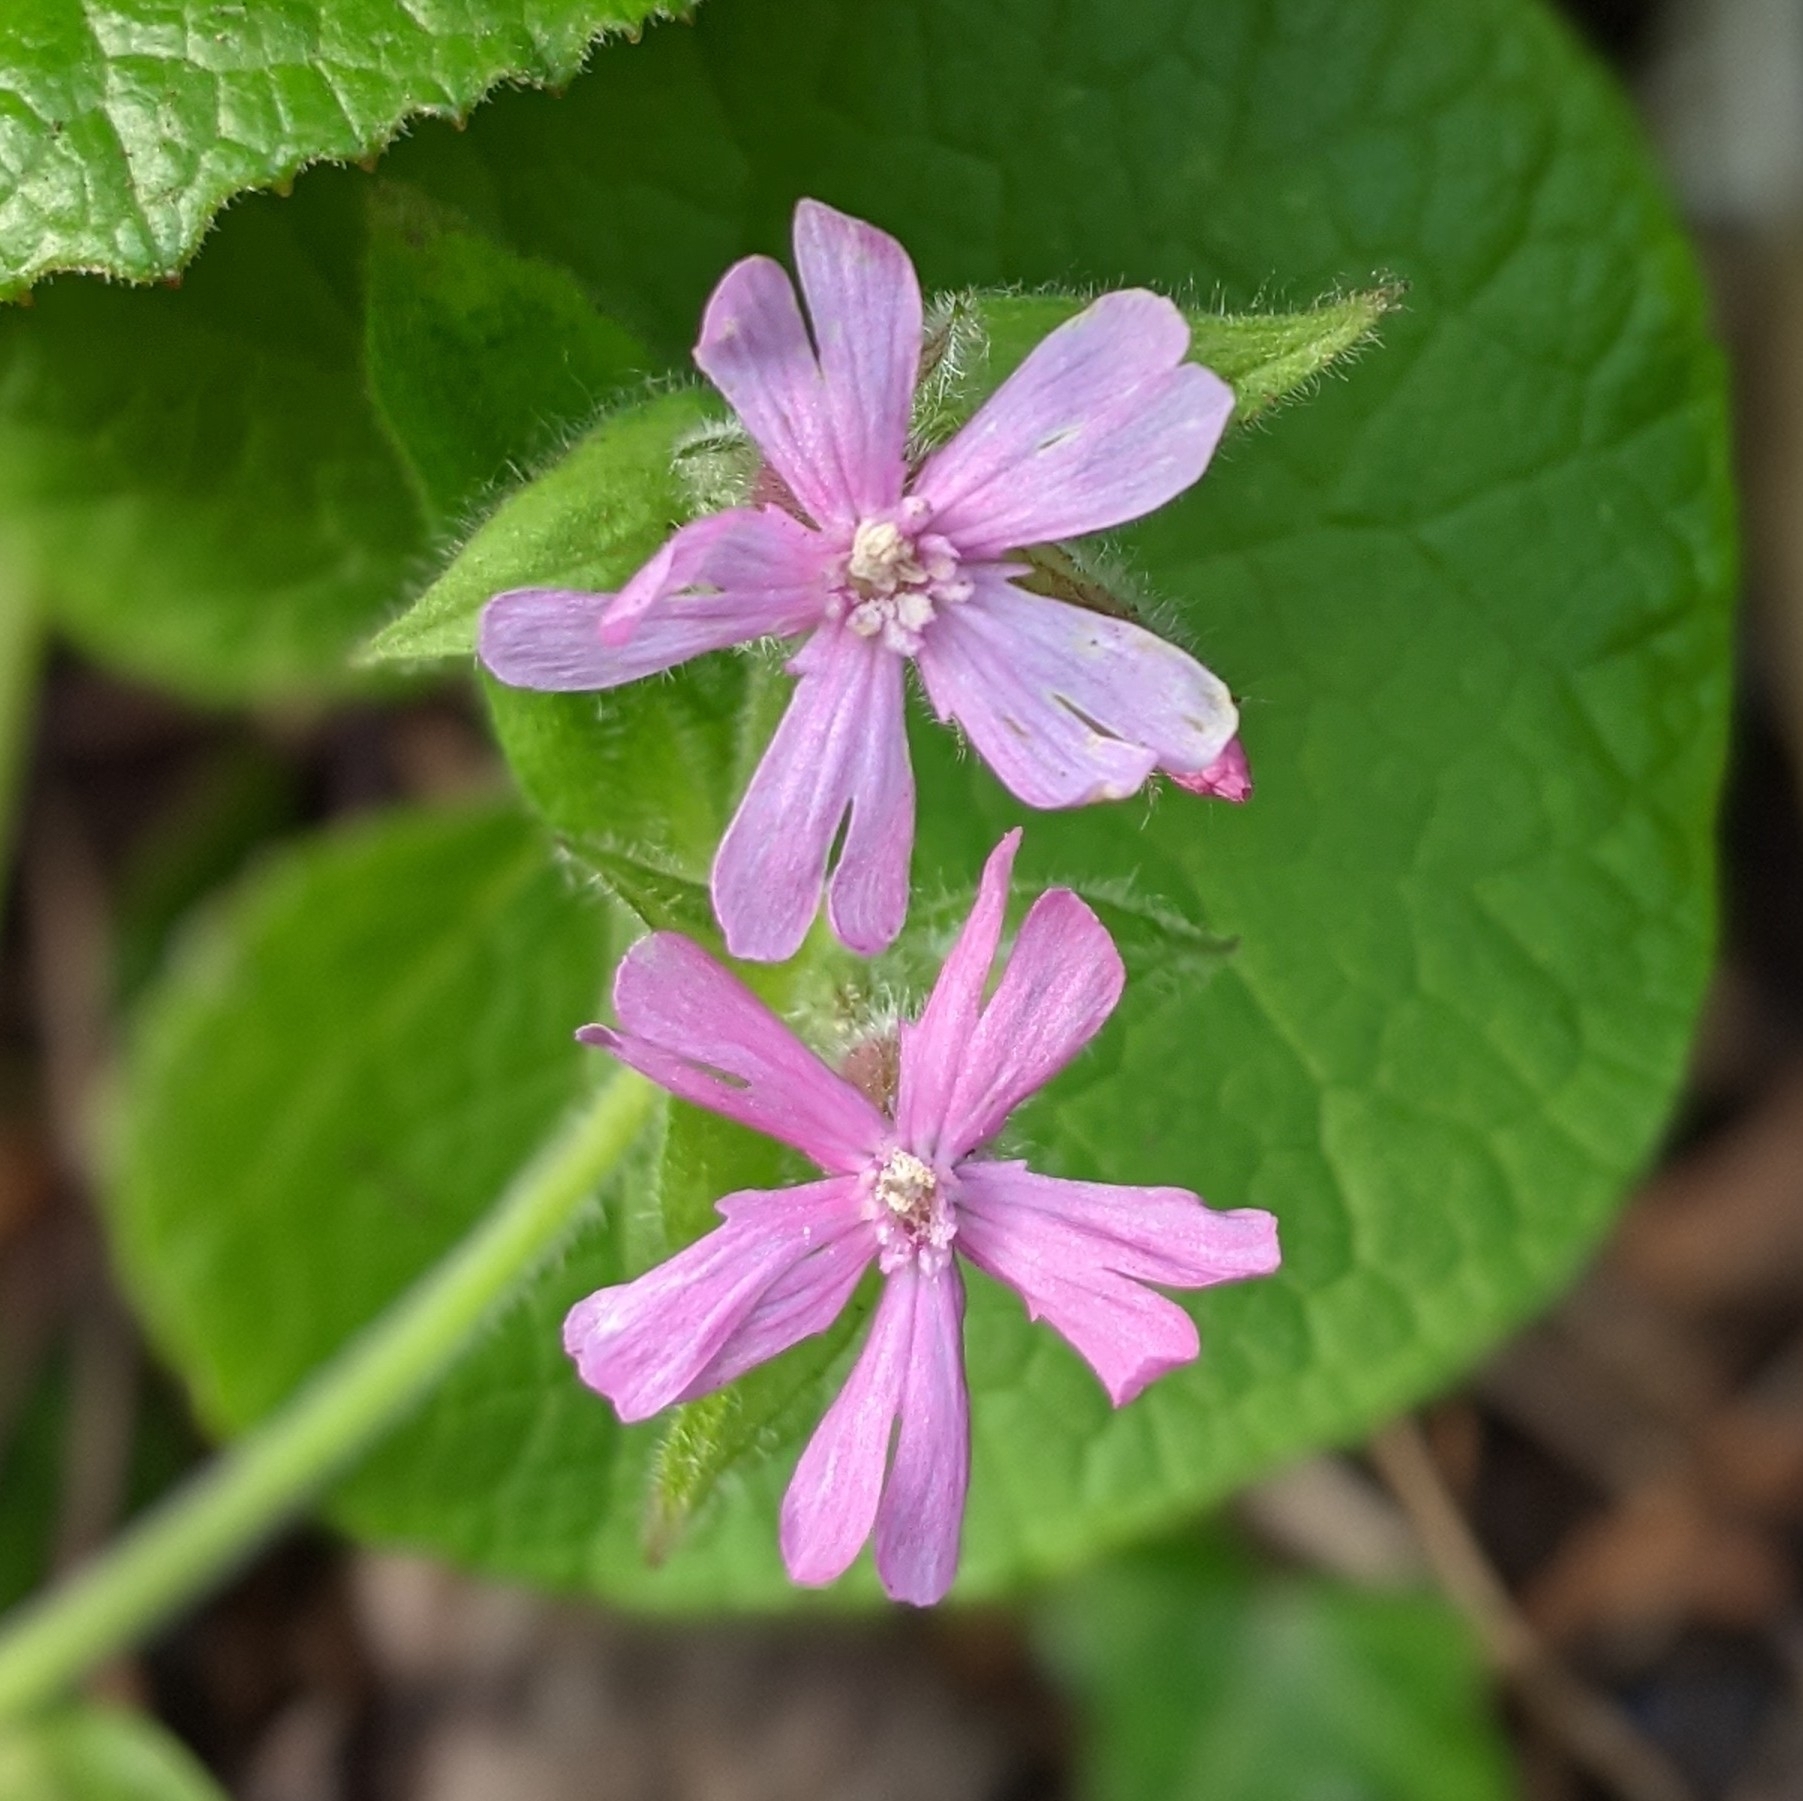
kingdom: Plantae
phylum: Tracheophyta
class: Magnoliopsida
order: Caryophyllales
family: Caryophyllaceae
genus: Silene
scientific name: Silene dioica
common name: Red campion
